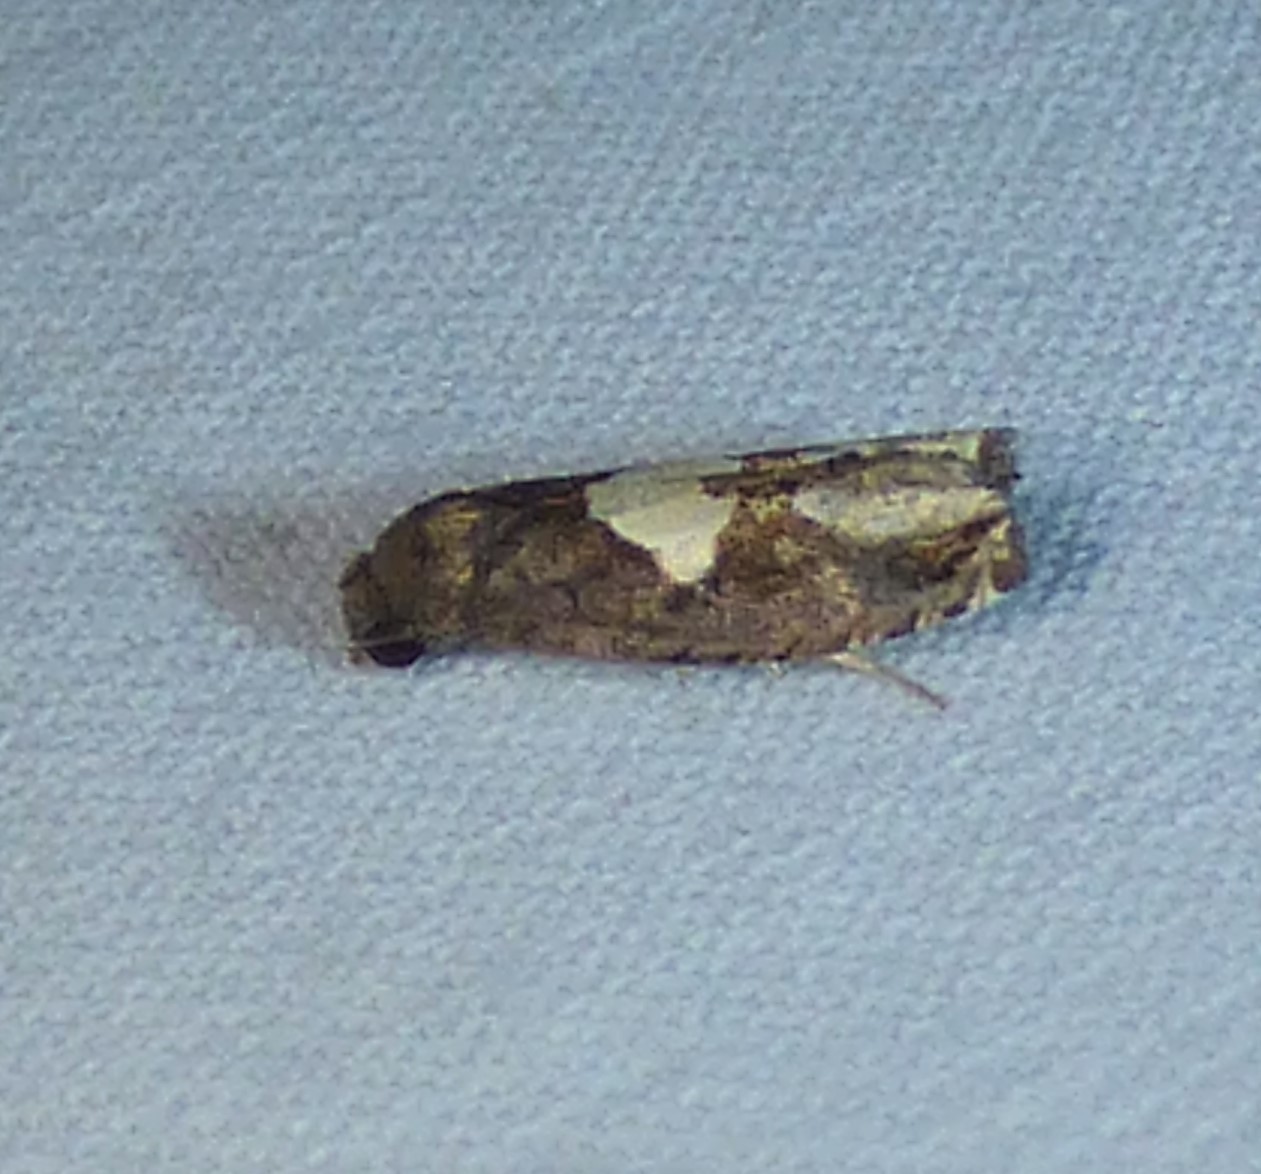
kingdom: Animalia
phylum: Arthropoda
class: Insecta
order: Lepidoptera
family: Tortricidae
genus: Epiblema
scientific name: Epiblema otiosana
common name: Bidens borer moth
